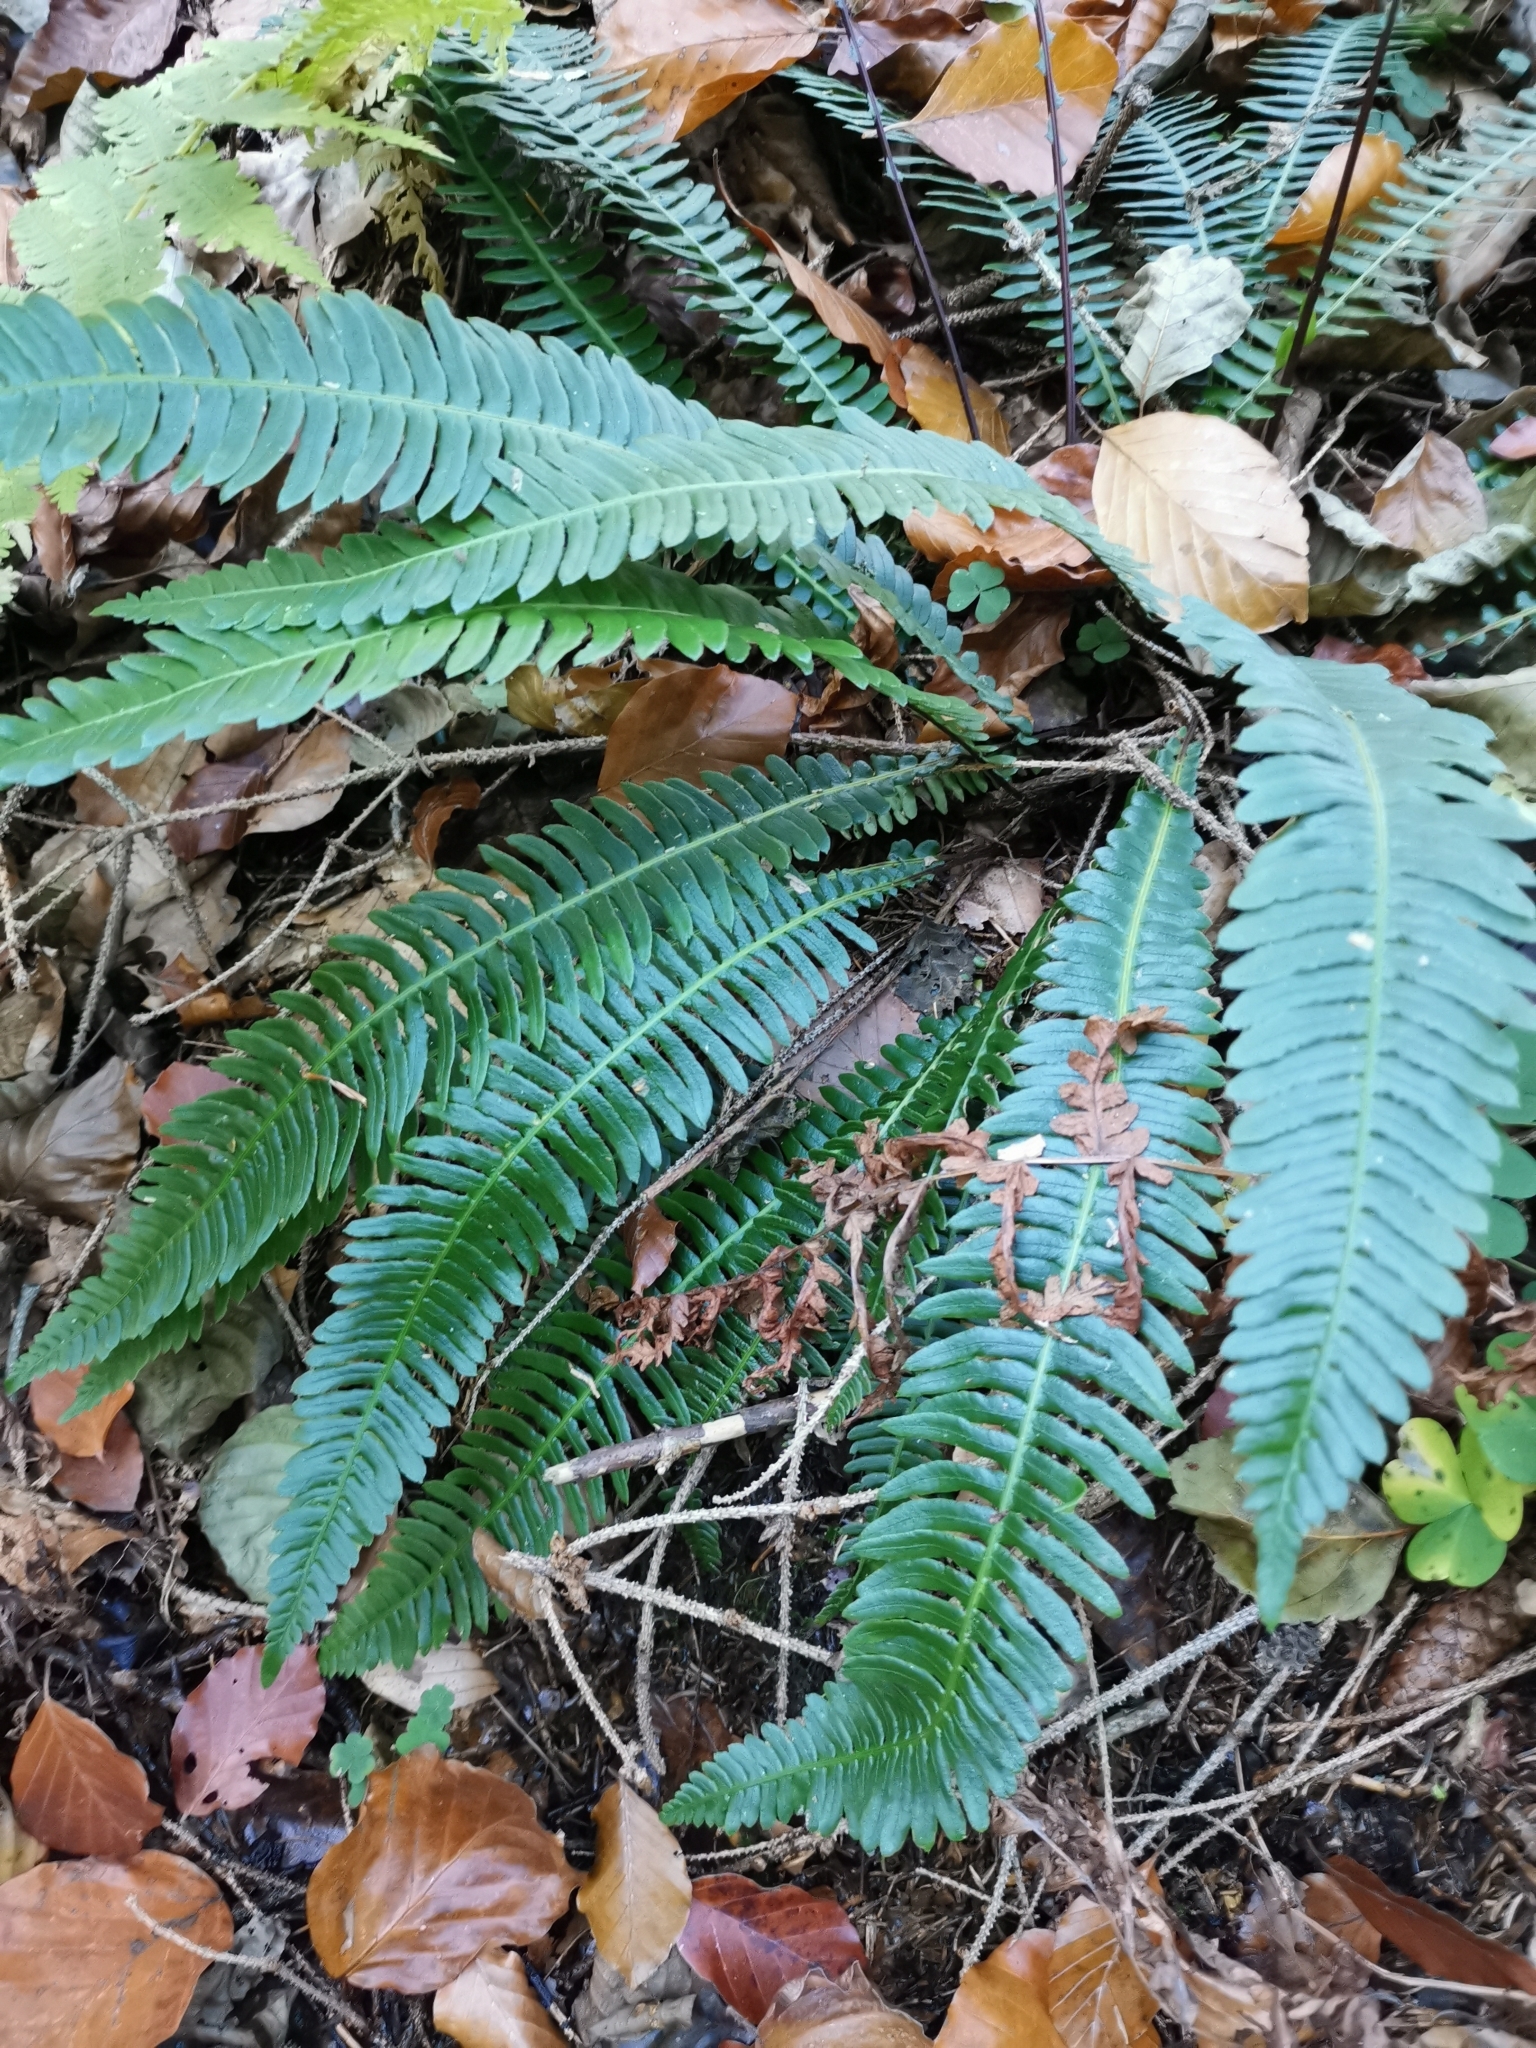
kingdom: Plantae
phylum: Tracheophyta
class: Polypodiopsida
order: Polypodiales
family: Blechnaceae
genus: Struthiopteris
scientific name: Struthiopteris spicant
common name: Deer fern
